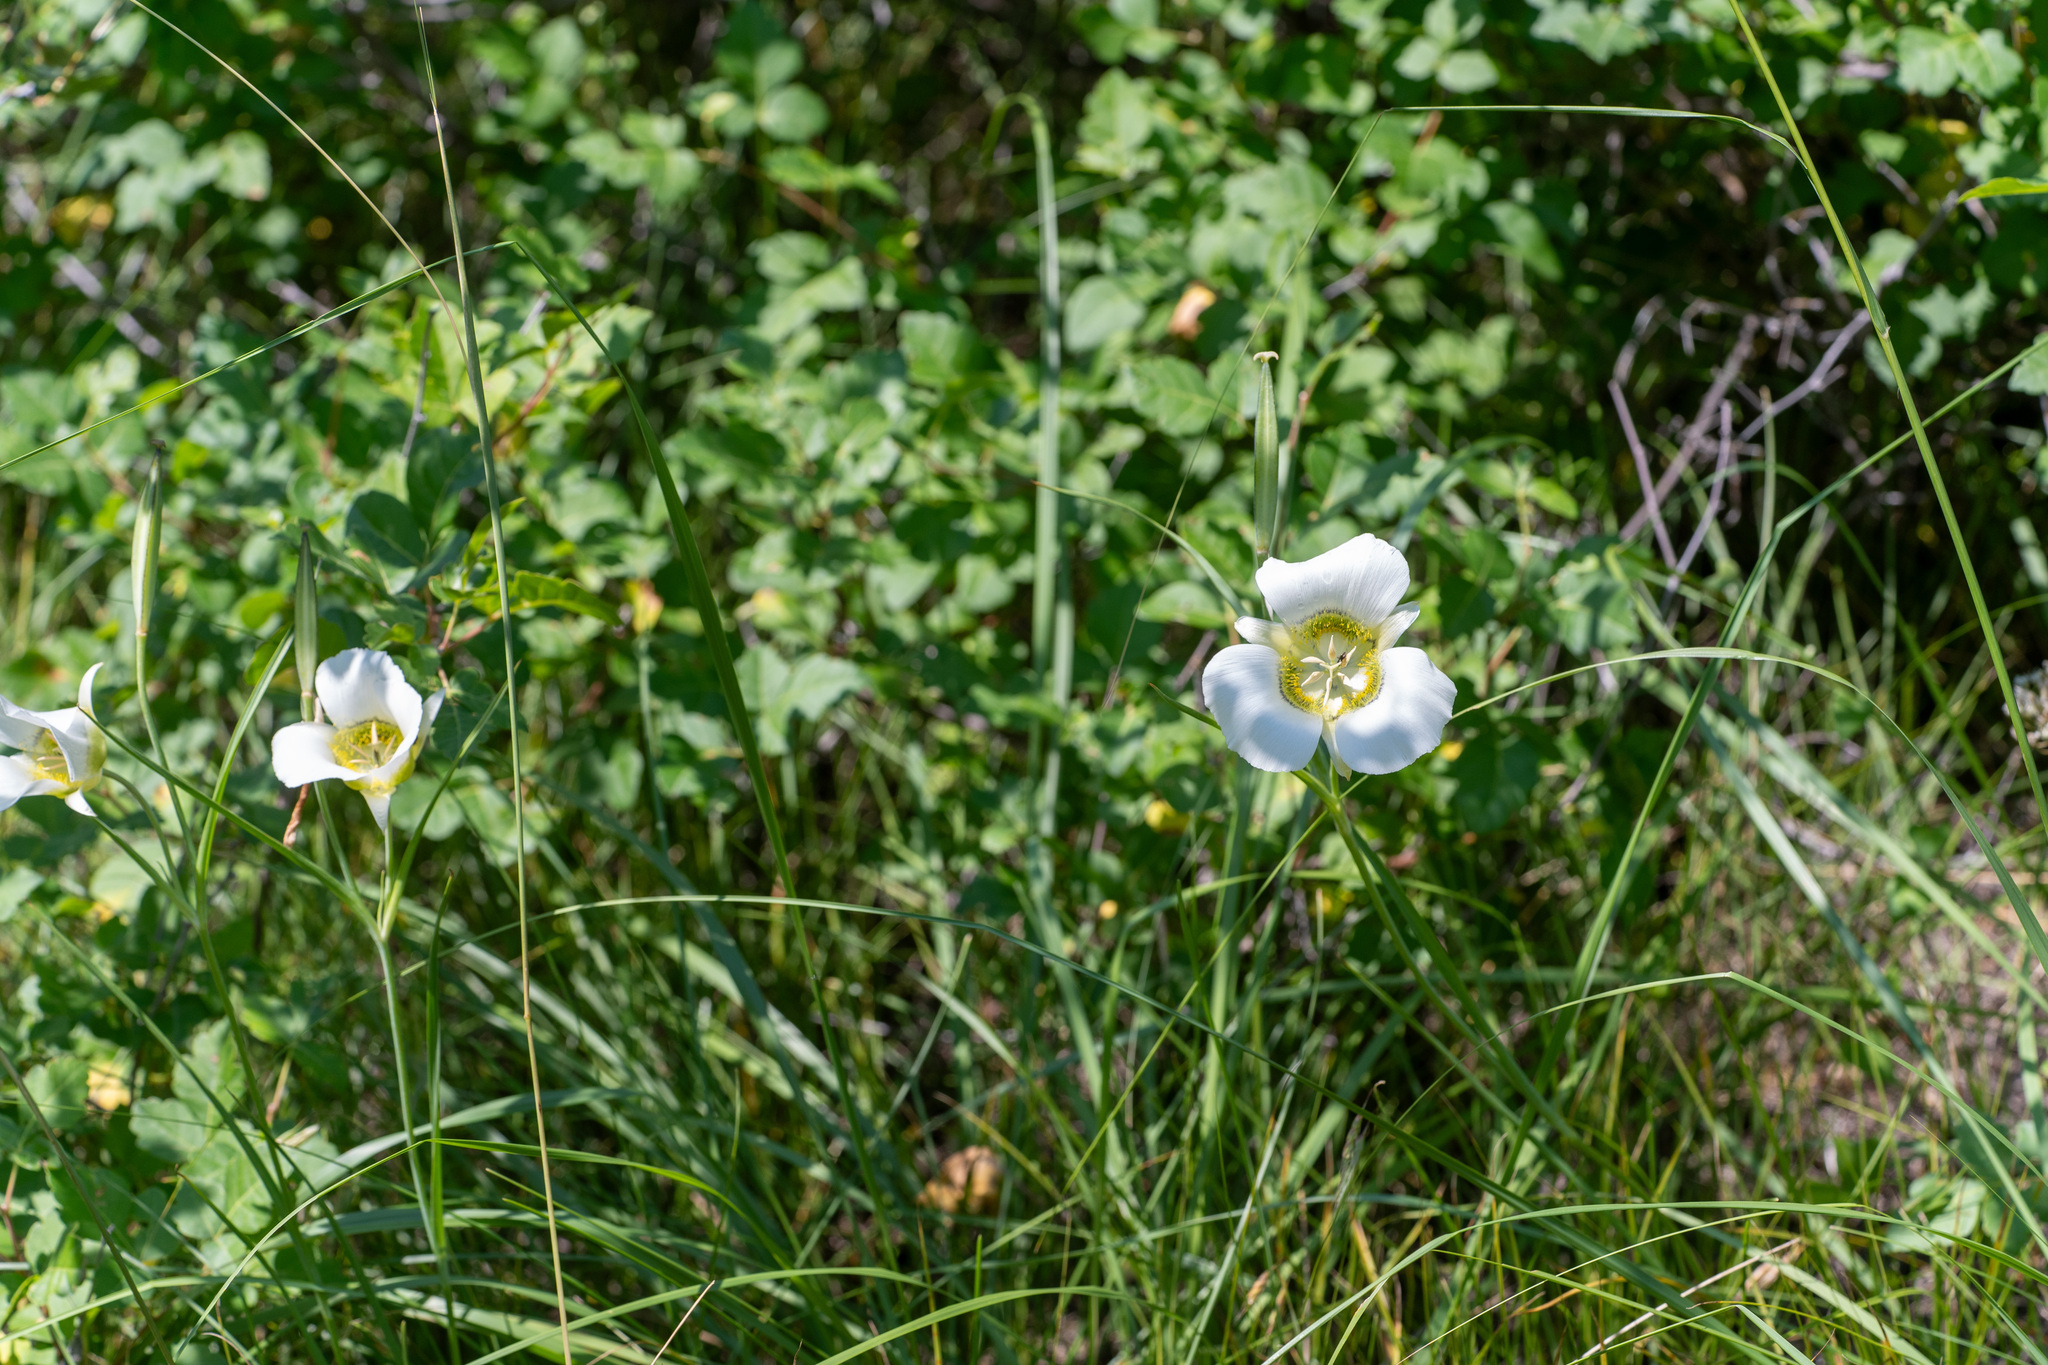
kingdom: Plantae
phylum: Tracheophyta
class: Liliopsida
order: Liliales
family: Liliaceae
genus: Calochortus
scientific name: Calochortus gunnisonii
